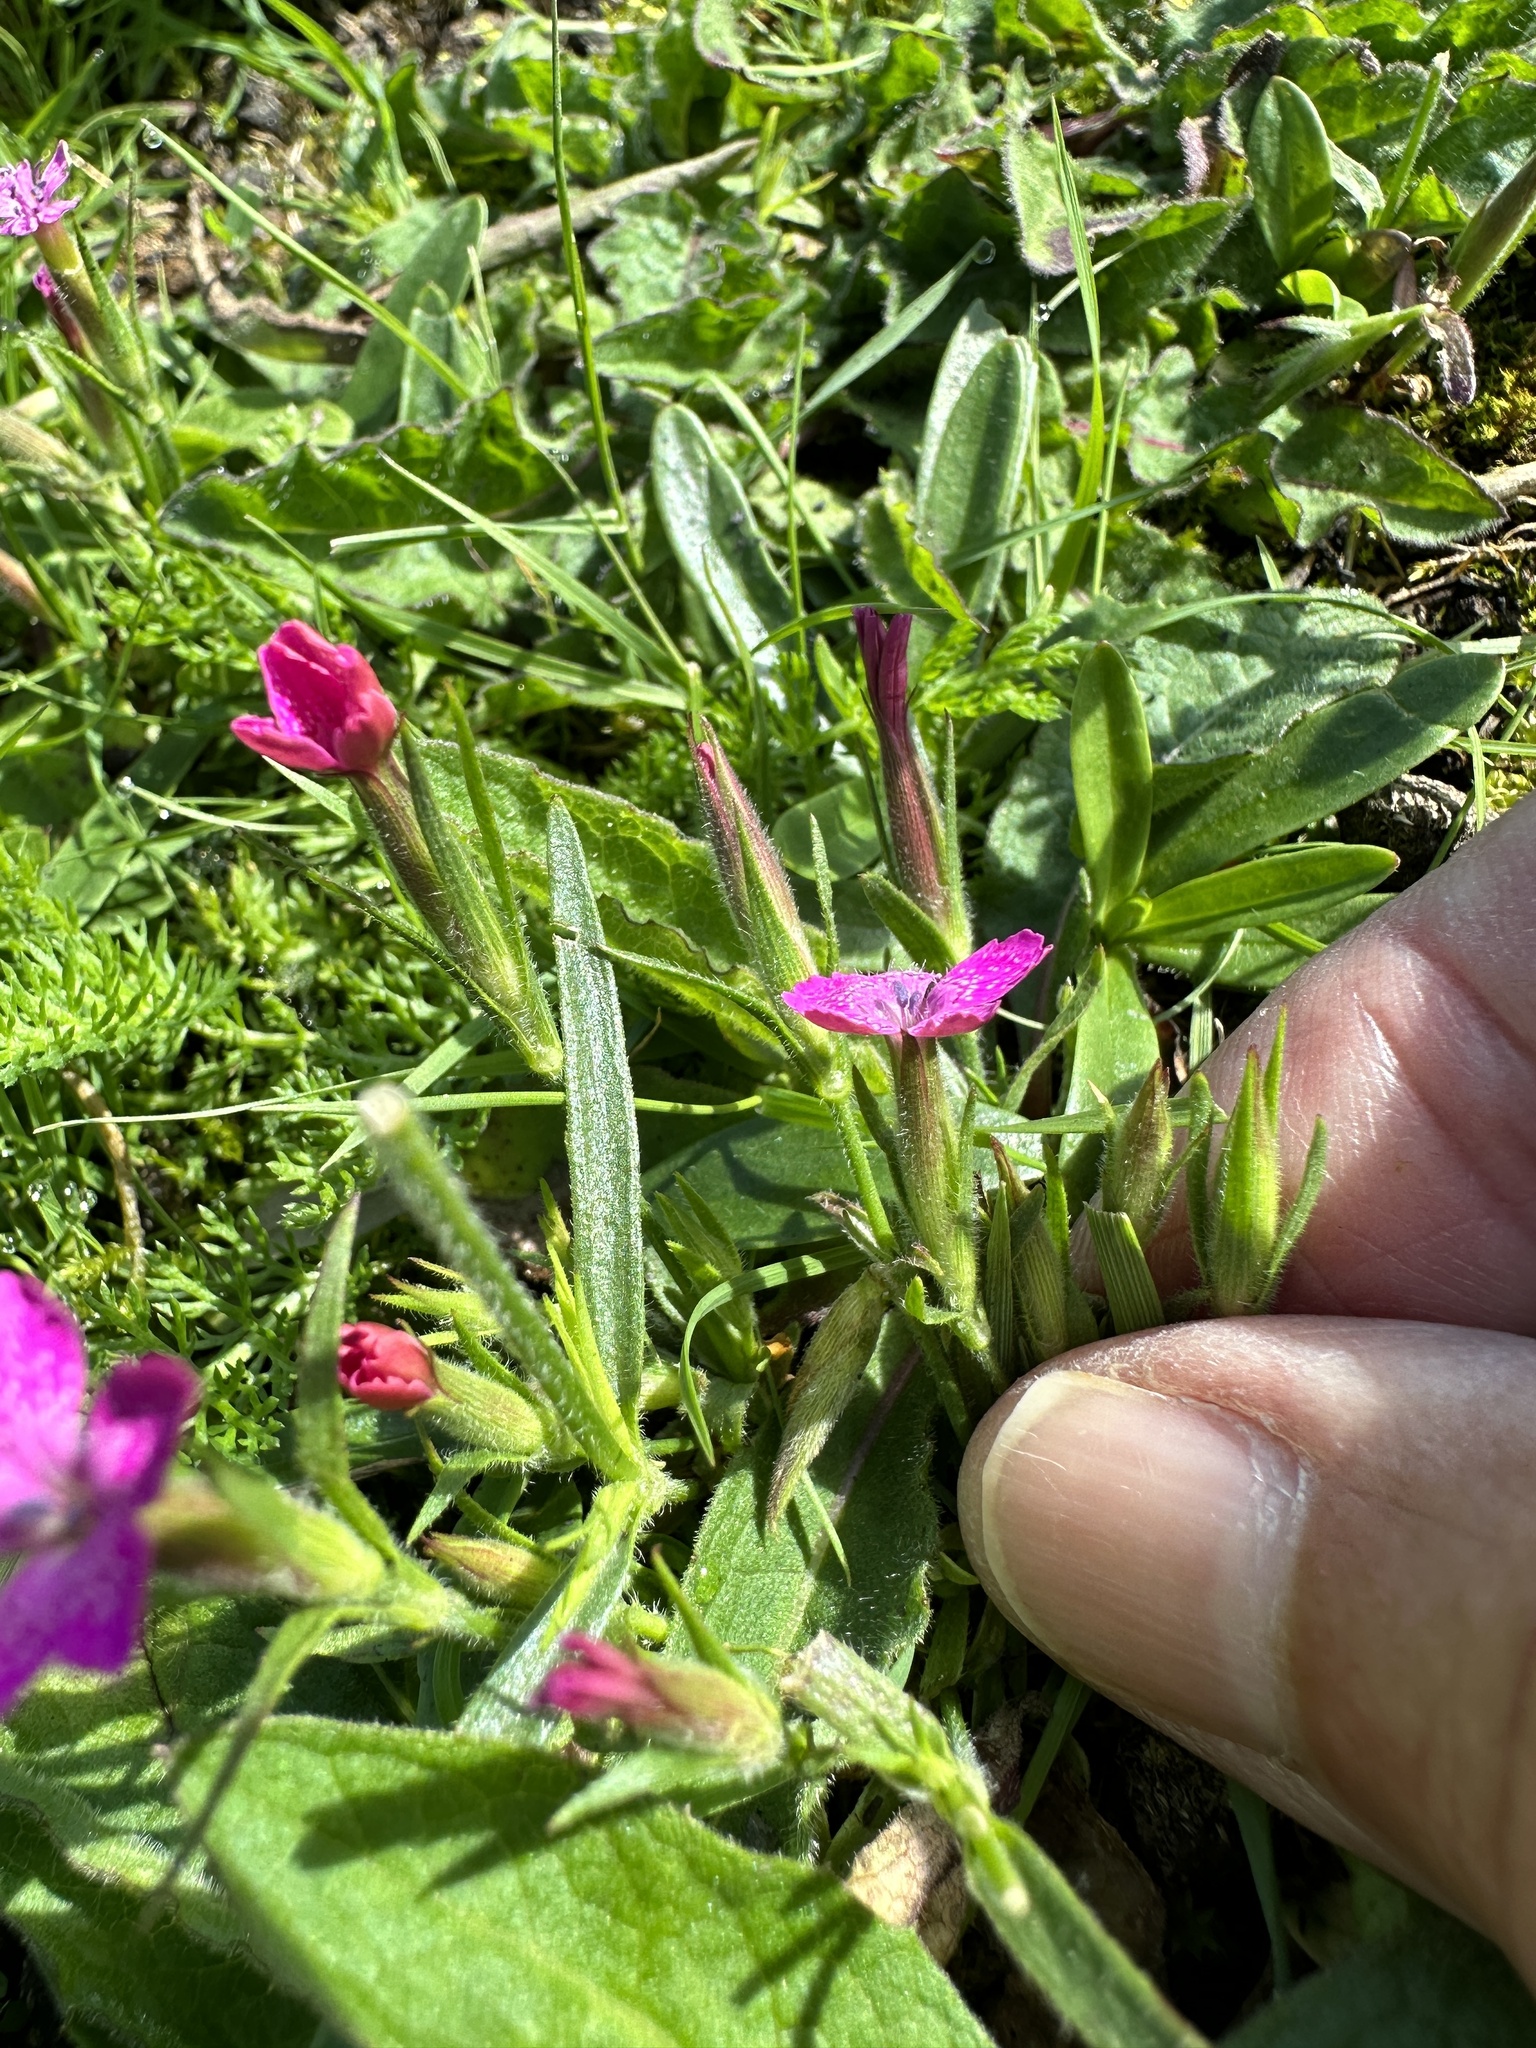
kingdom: Plantae
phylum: Tracheophyta
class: Magnoliopsida
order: Caryophyllales
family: Caryophyllaceae
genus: Dianthus
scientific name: Dianthus armeria
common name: Deptford pink
